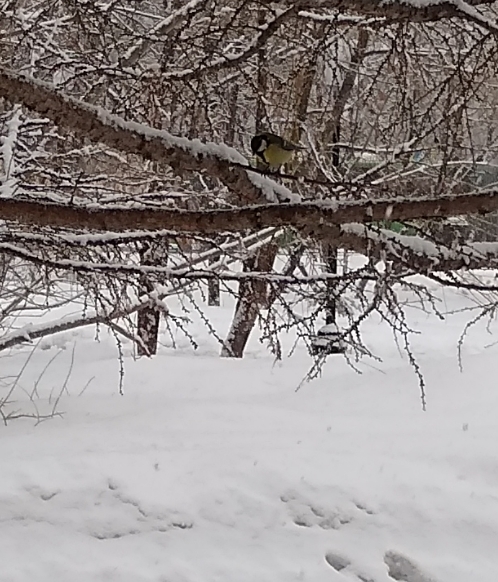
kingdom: Animalia
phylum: Chordata
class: Aves
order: Passeriformes
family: Paridae
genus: Parus
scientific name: Parus major
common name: Great tit
